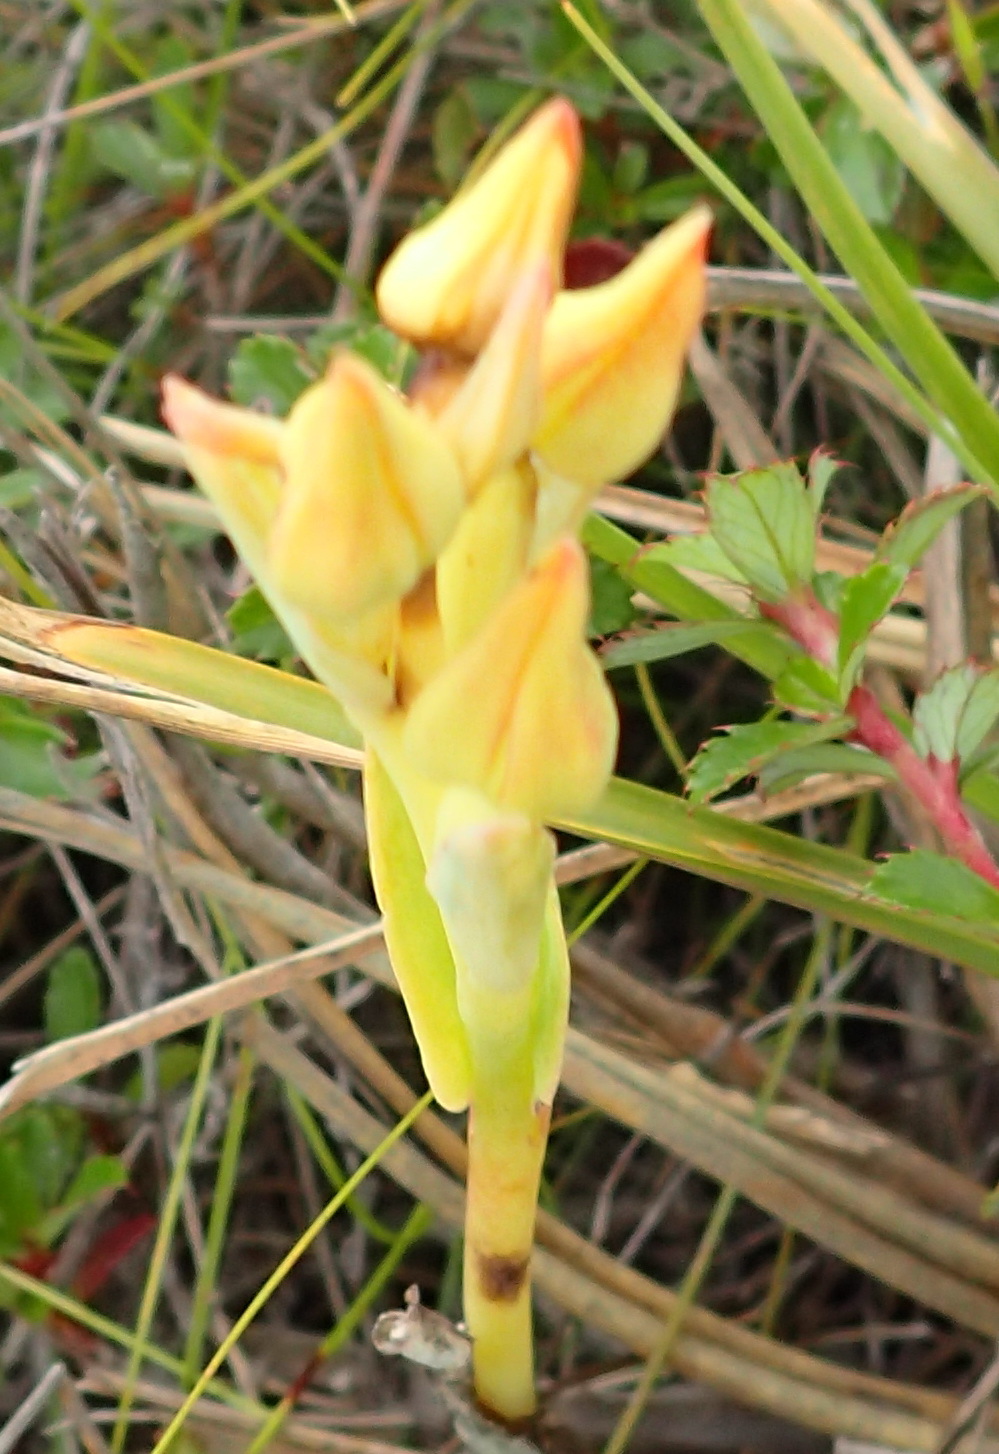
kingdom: Plantae
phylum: Tracheophyta
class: Liliopsida
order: Asparagales
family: Orchidaceae
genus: Pterygodium
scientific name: Pterygodium cleistogamum
